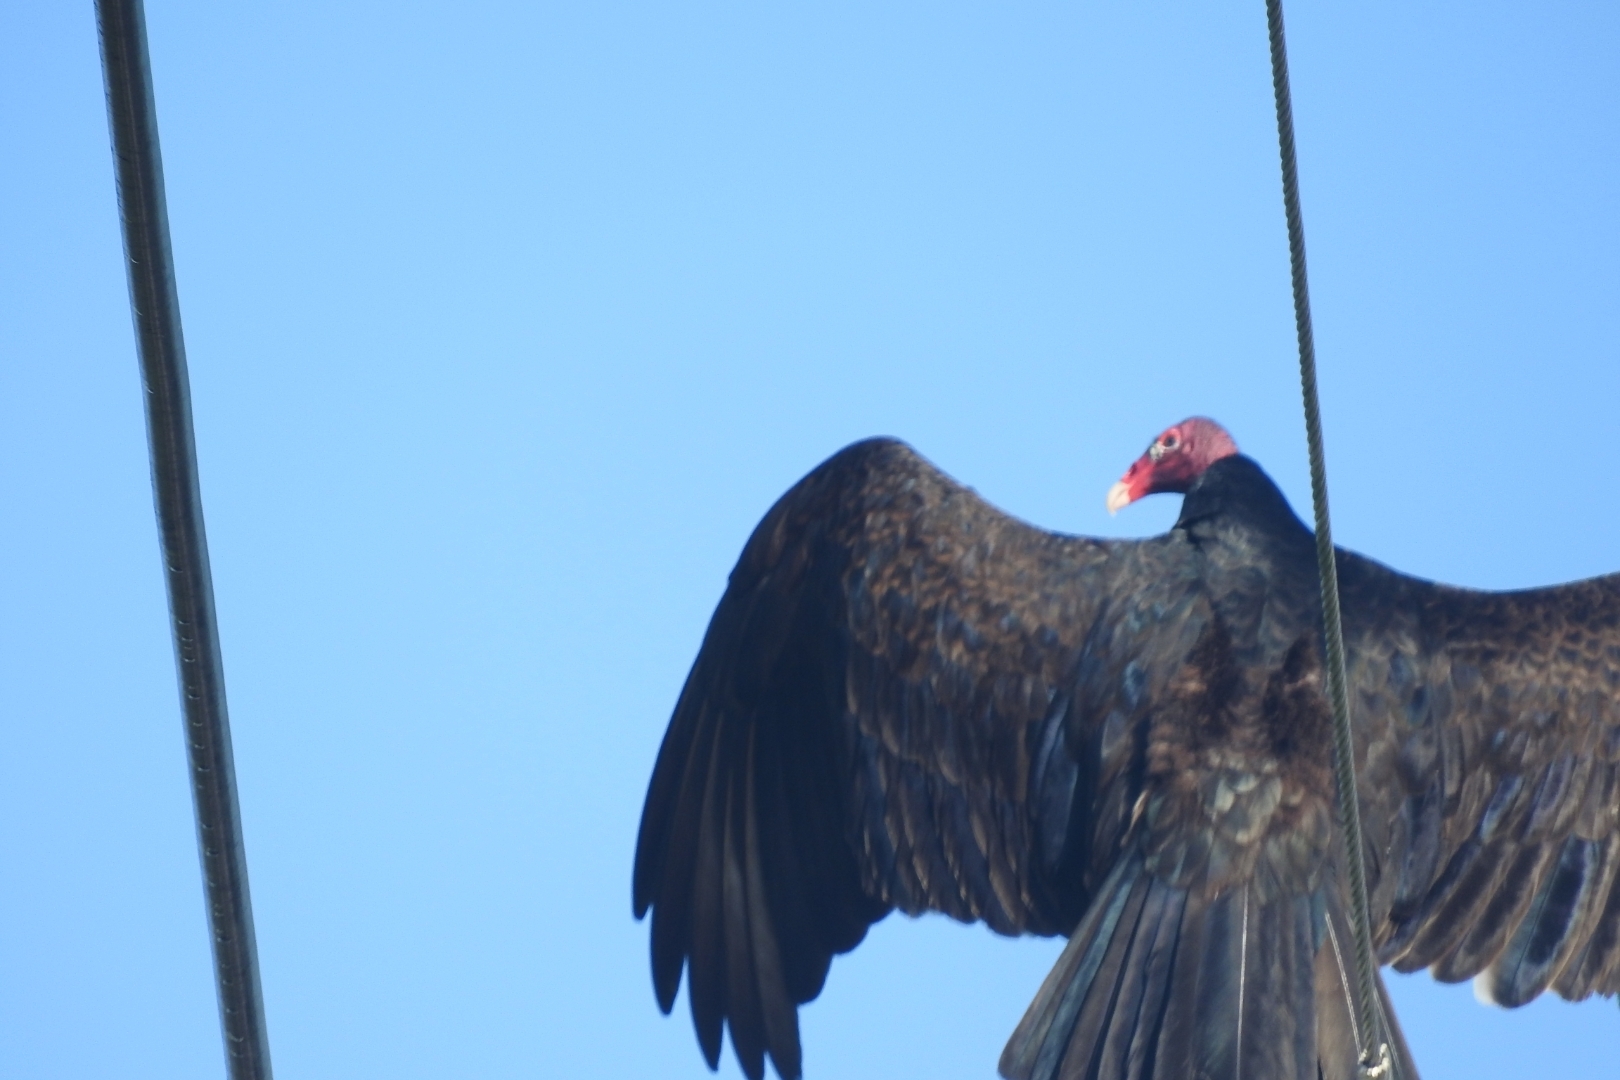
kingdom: Animalia
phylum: Chordata
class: Aves
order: Accipitriformes
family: Cathartidae
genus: Cathartes
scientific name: Cathartes aura
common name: Turkey vulture
